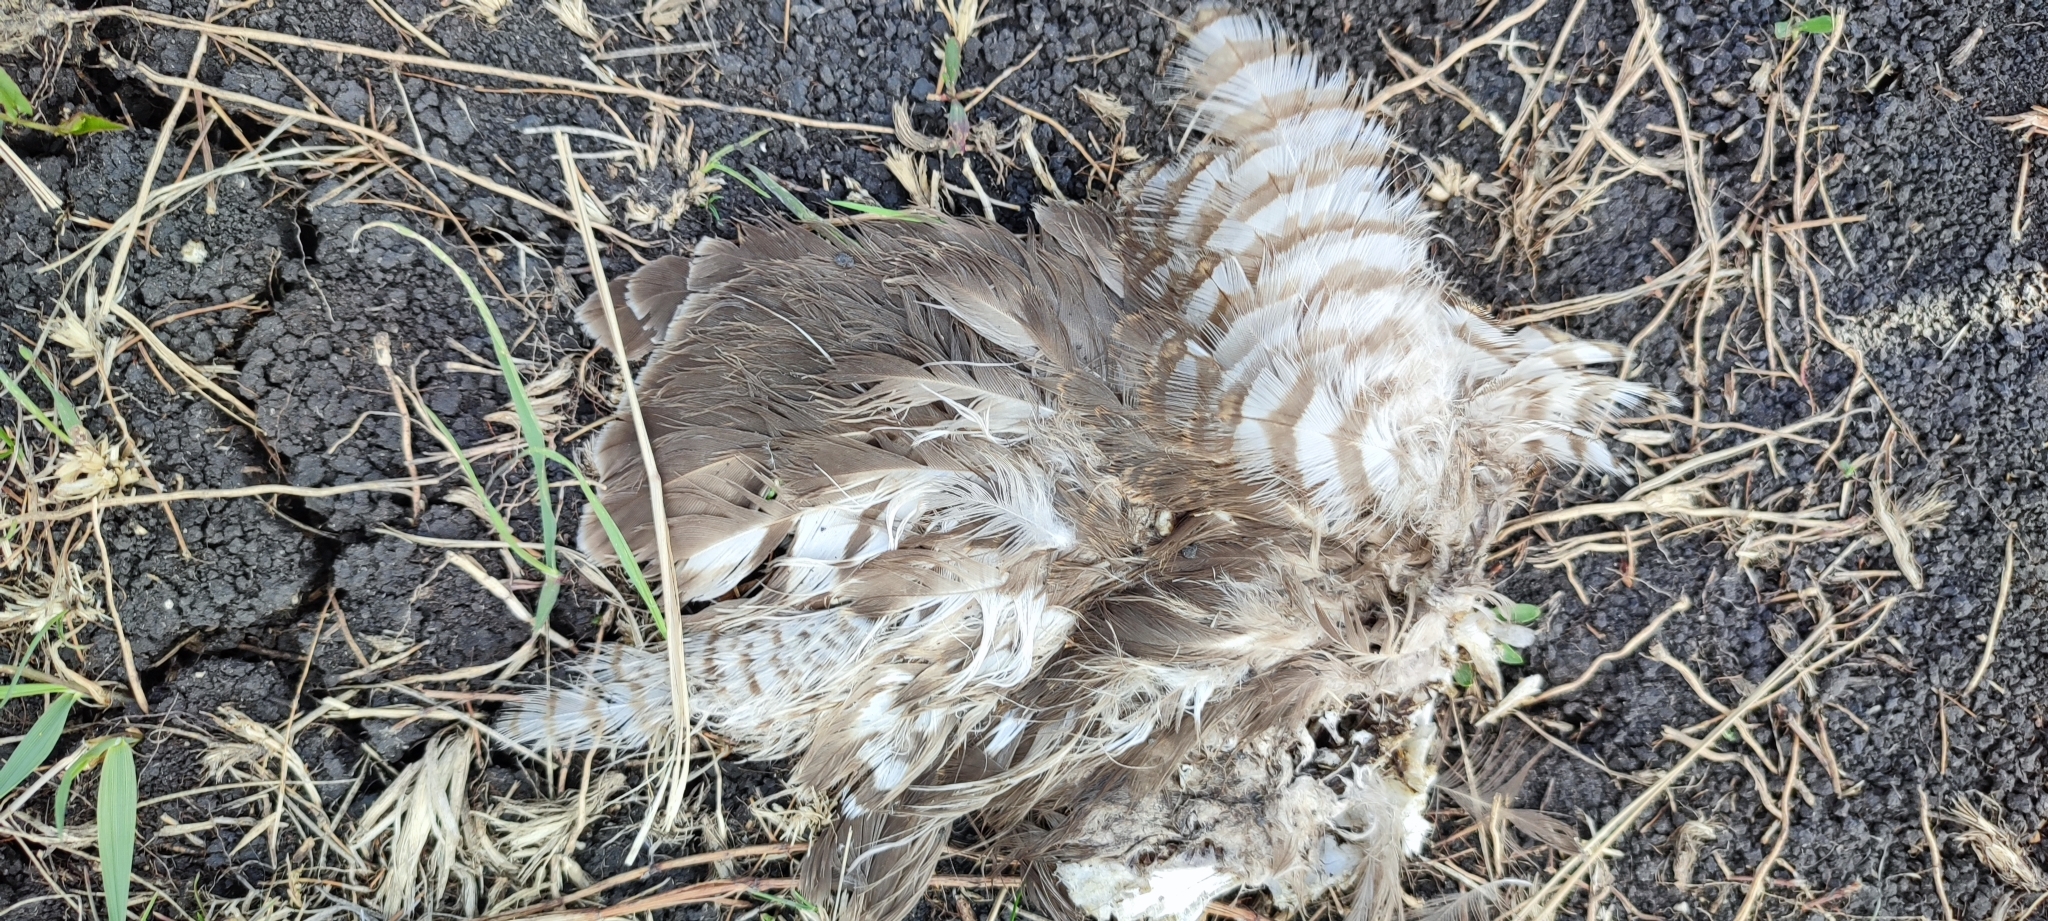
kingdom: Animalia
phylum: Chordata
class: Aves
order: Accipitriformes
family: Accipitridae
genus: Accipiter
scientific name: Accipiter nisus
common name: Eurasian sparrowhawk
